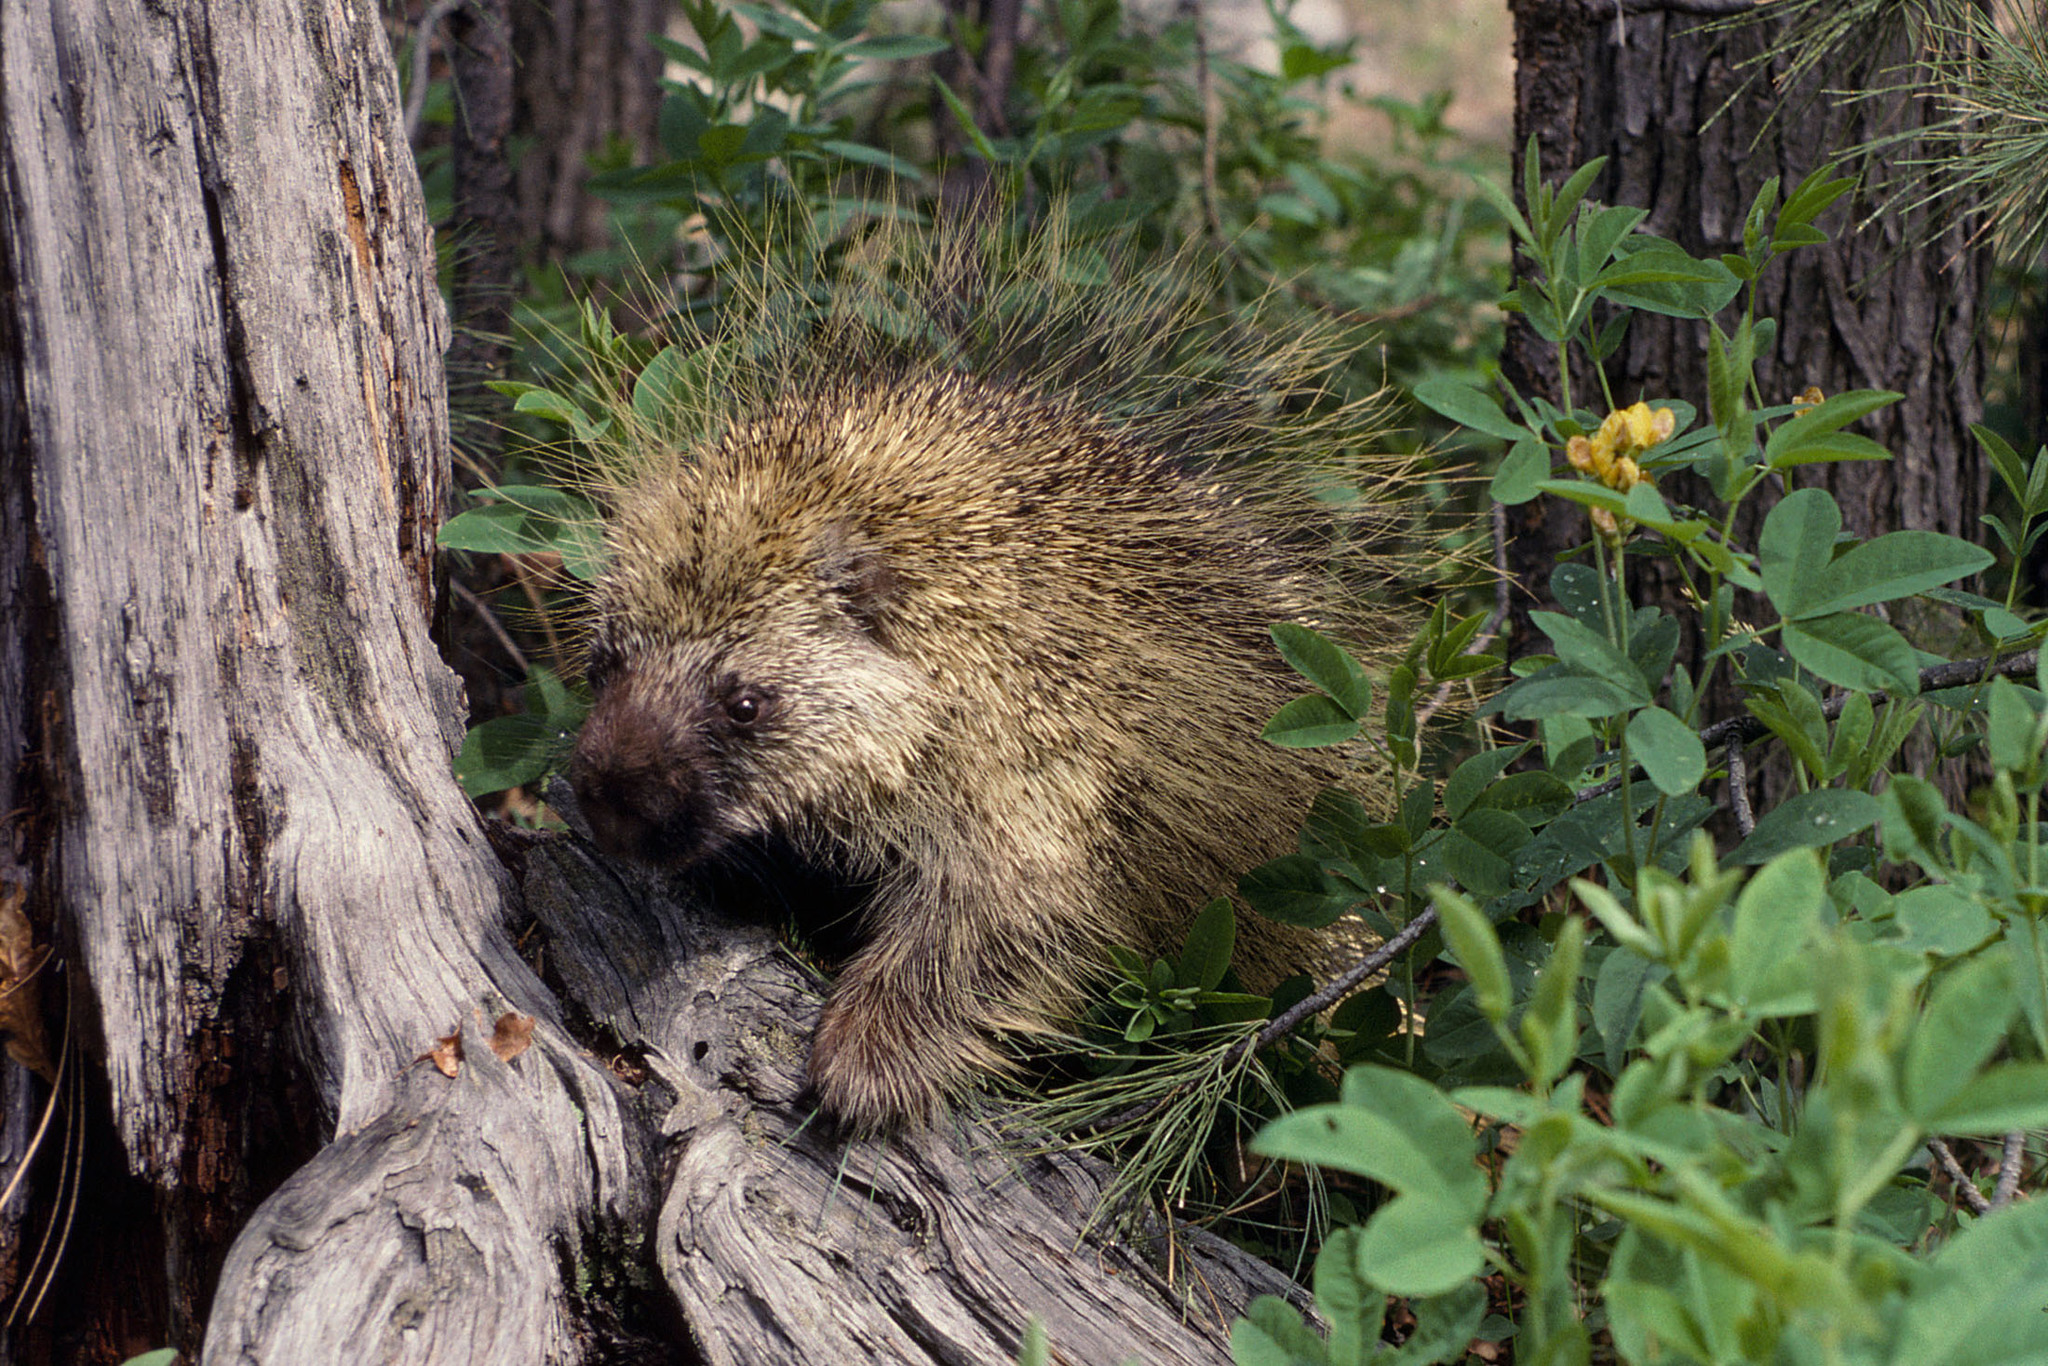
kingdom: Animalia
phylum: Chordata
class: Mammalia
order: Rodentia
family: Erethizontidae
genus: Erethizon
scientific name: Erethizon dorsatus
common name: North american porcupine
